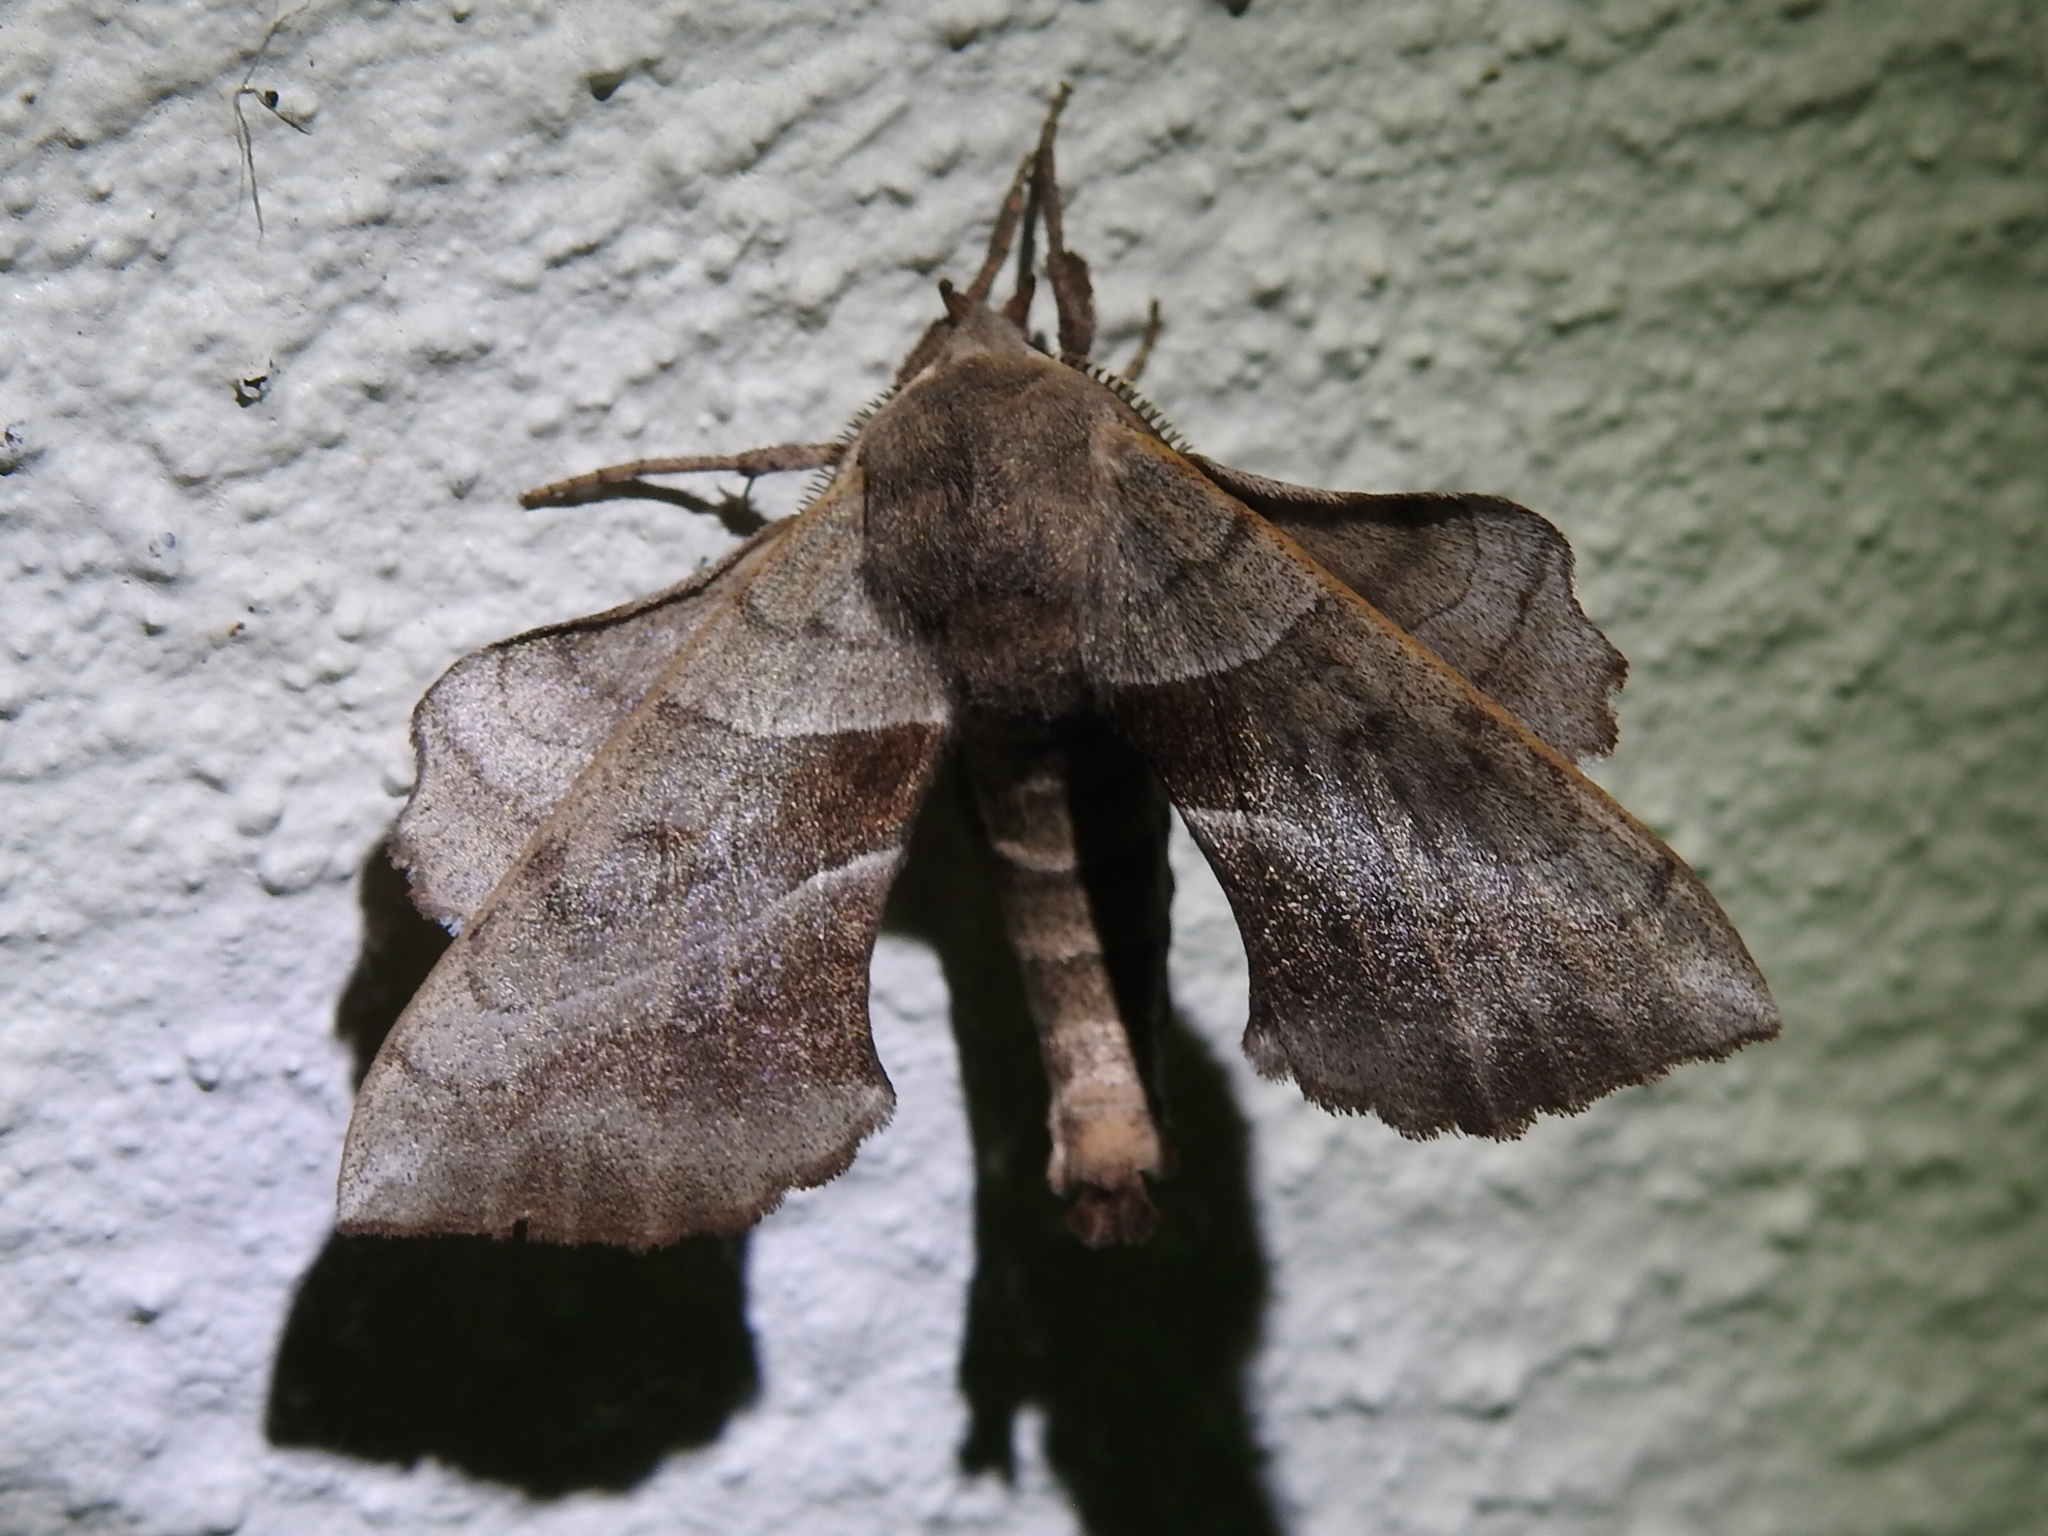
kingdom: Animalia
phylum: Arthropoda
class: Insecta
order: Lepidoptera
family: Sphingidae
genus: Amorpha
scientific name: Amorpha juglandis
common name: Walnut sphinx
